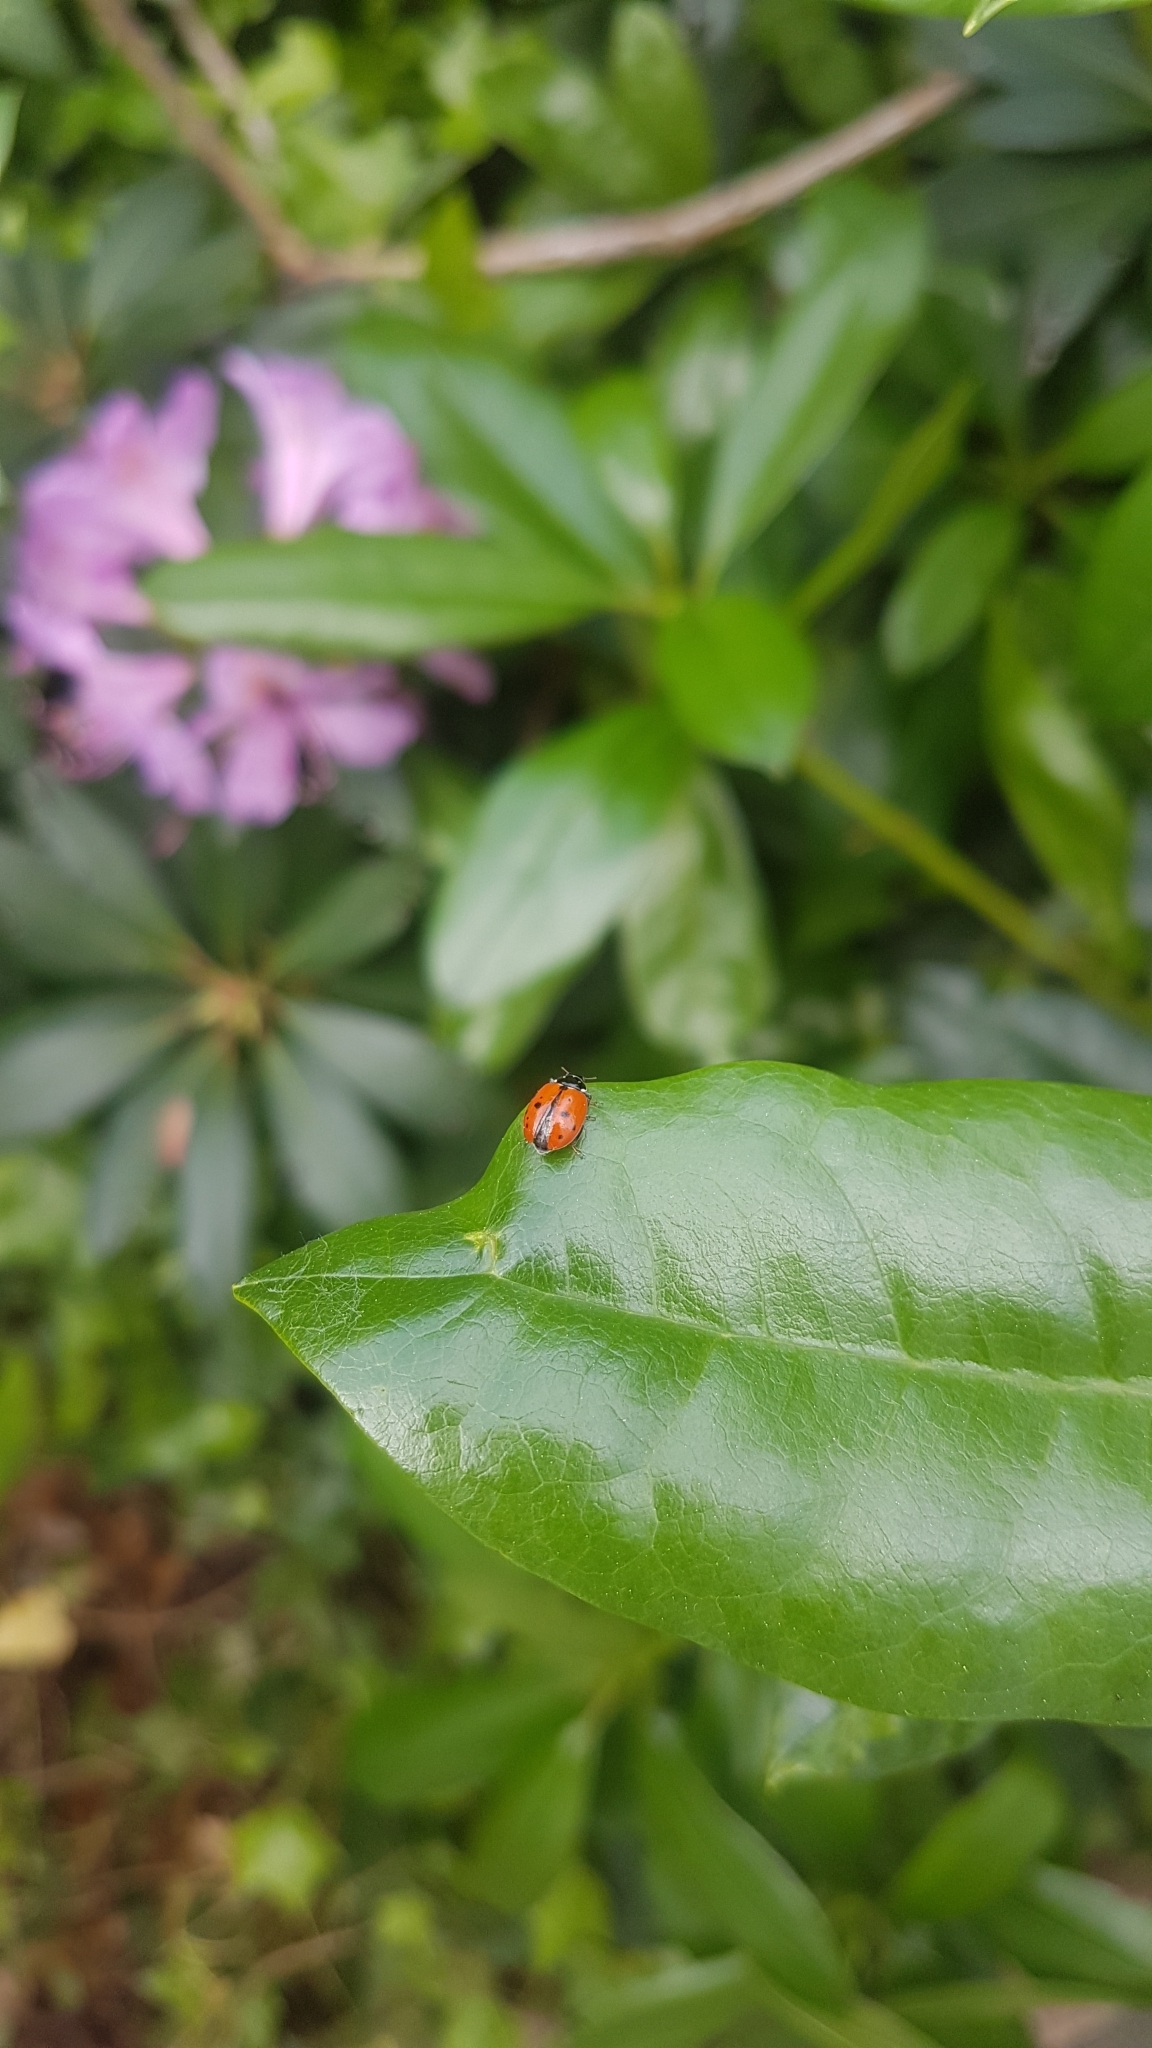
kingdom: Animalia
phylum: Arthropoda
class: Insecta
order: Coleoptera
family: Coccinellidae
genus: Hippodamia
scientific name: Hippodamia variegata
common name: Ladybird beetle
